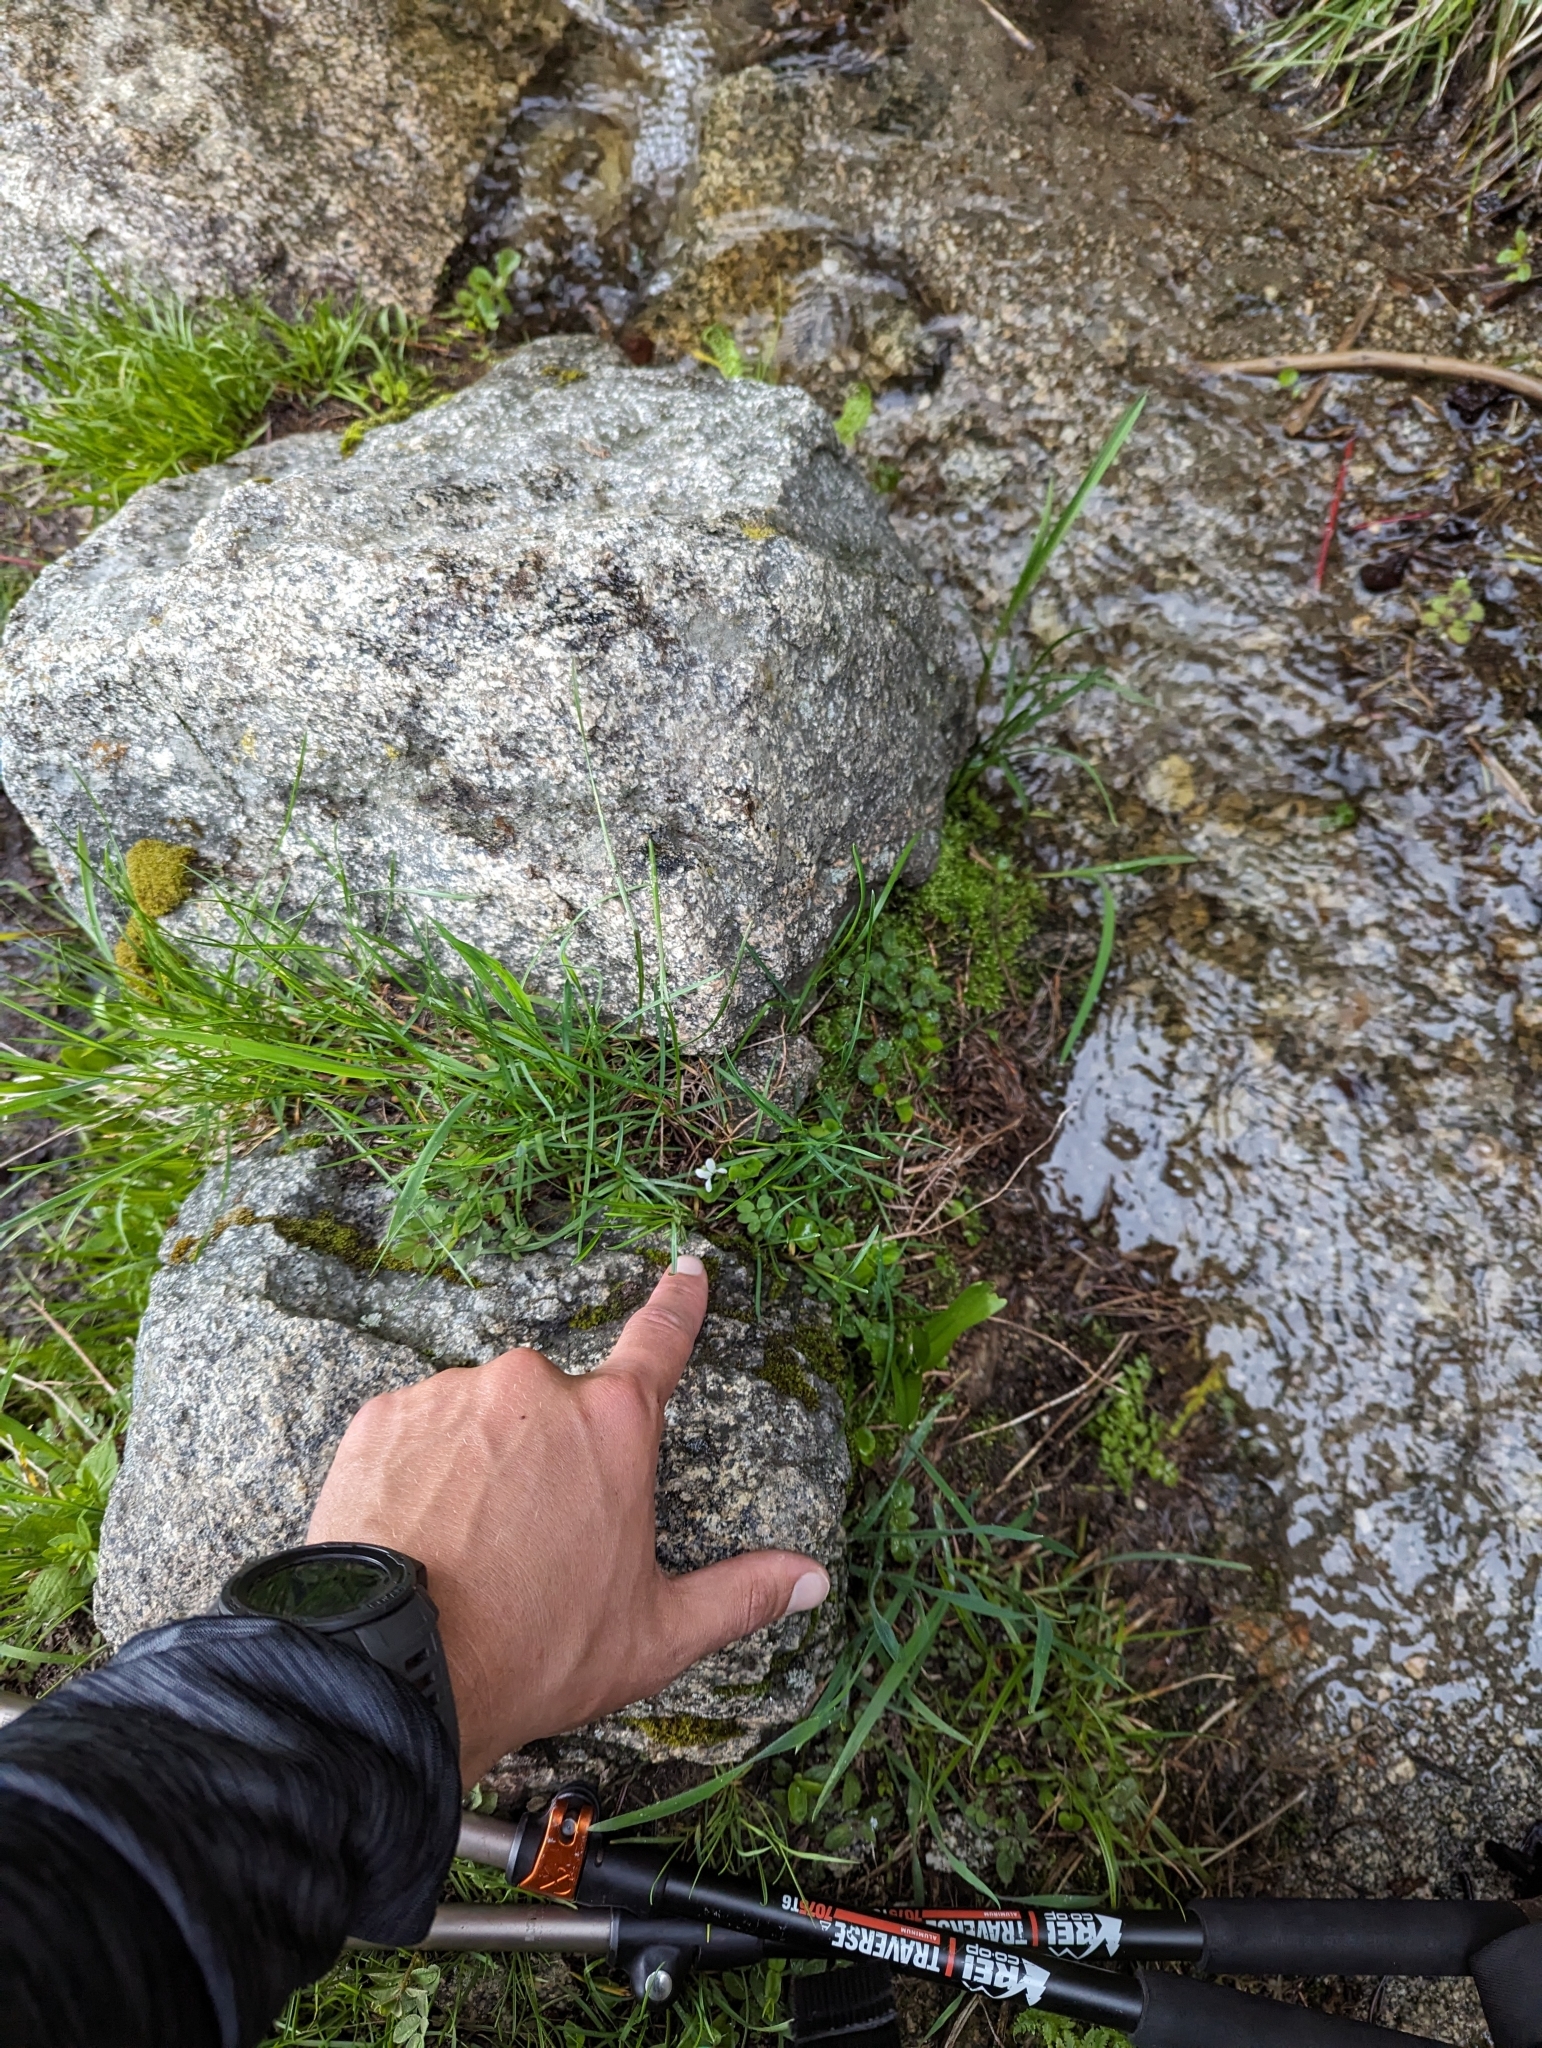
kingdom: Plantae
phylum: Tracheophyta
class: Magnoliopsida
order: Malpighiales
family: Violaceae
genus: Viola
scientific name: Viola macloskeyi
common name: Macloskey's violet
